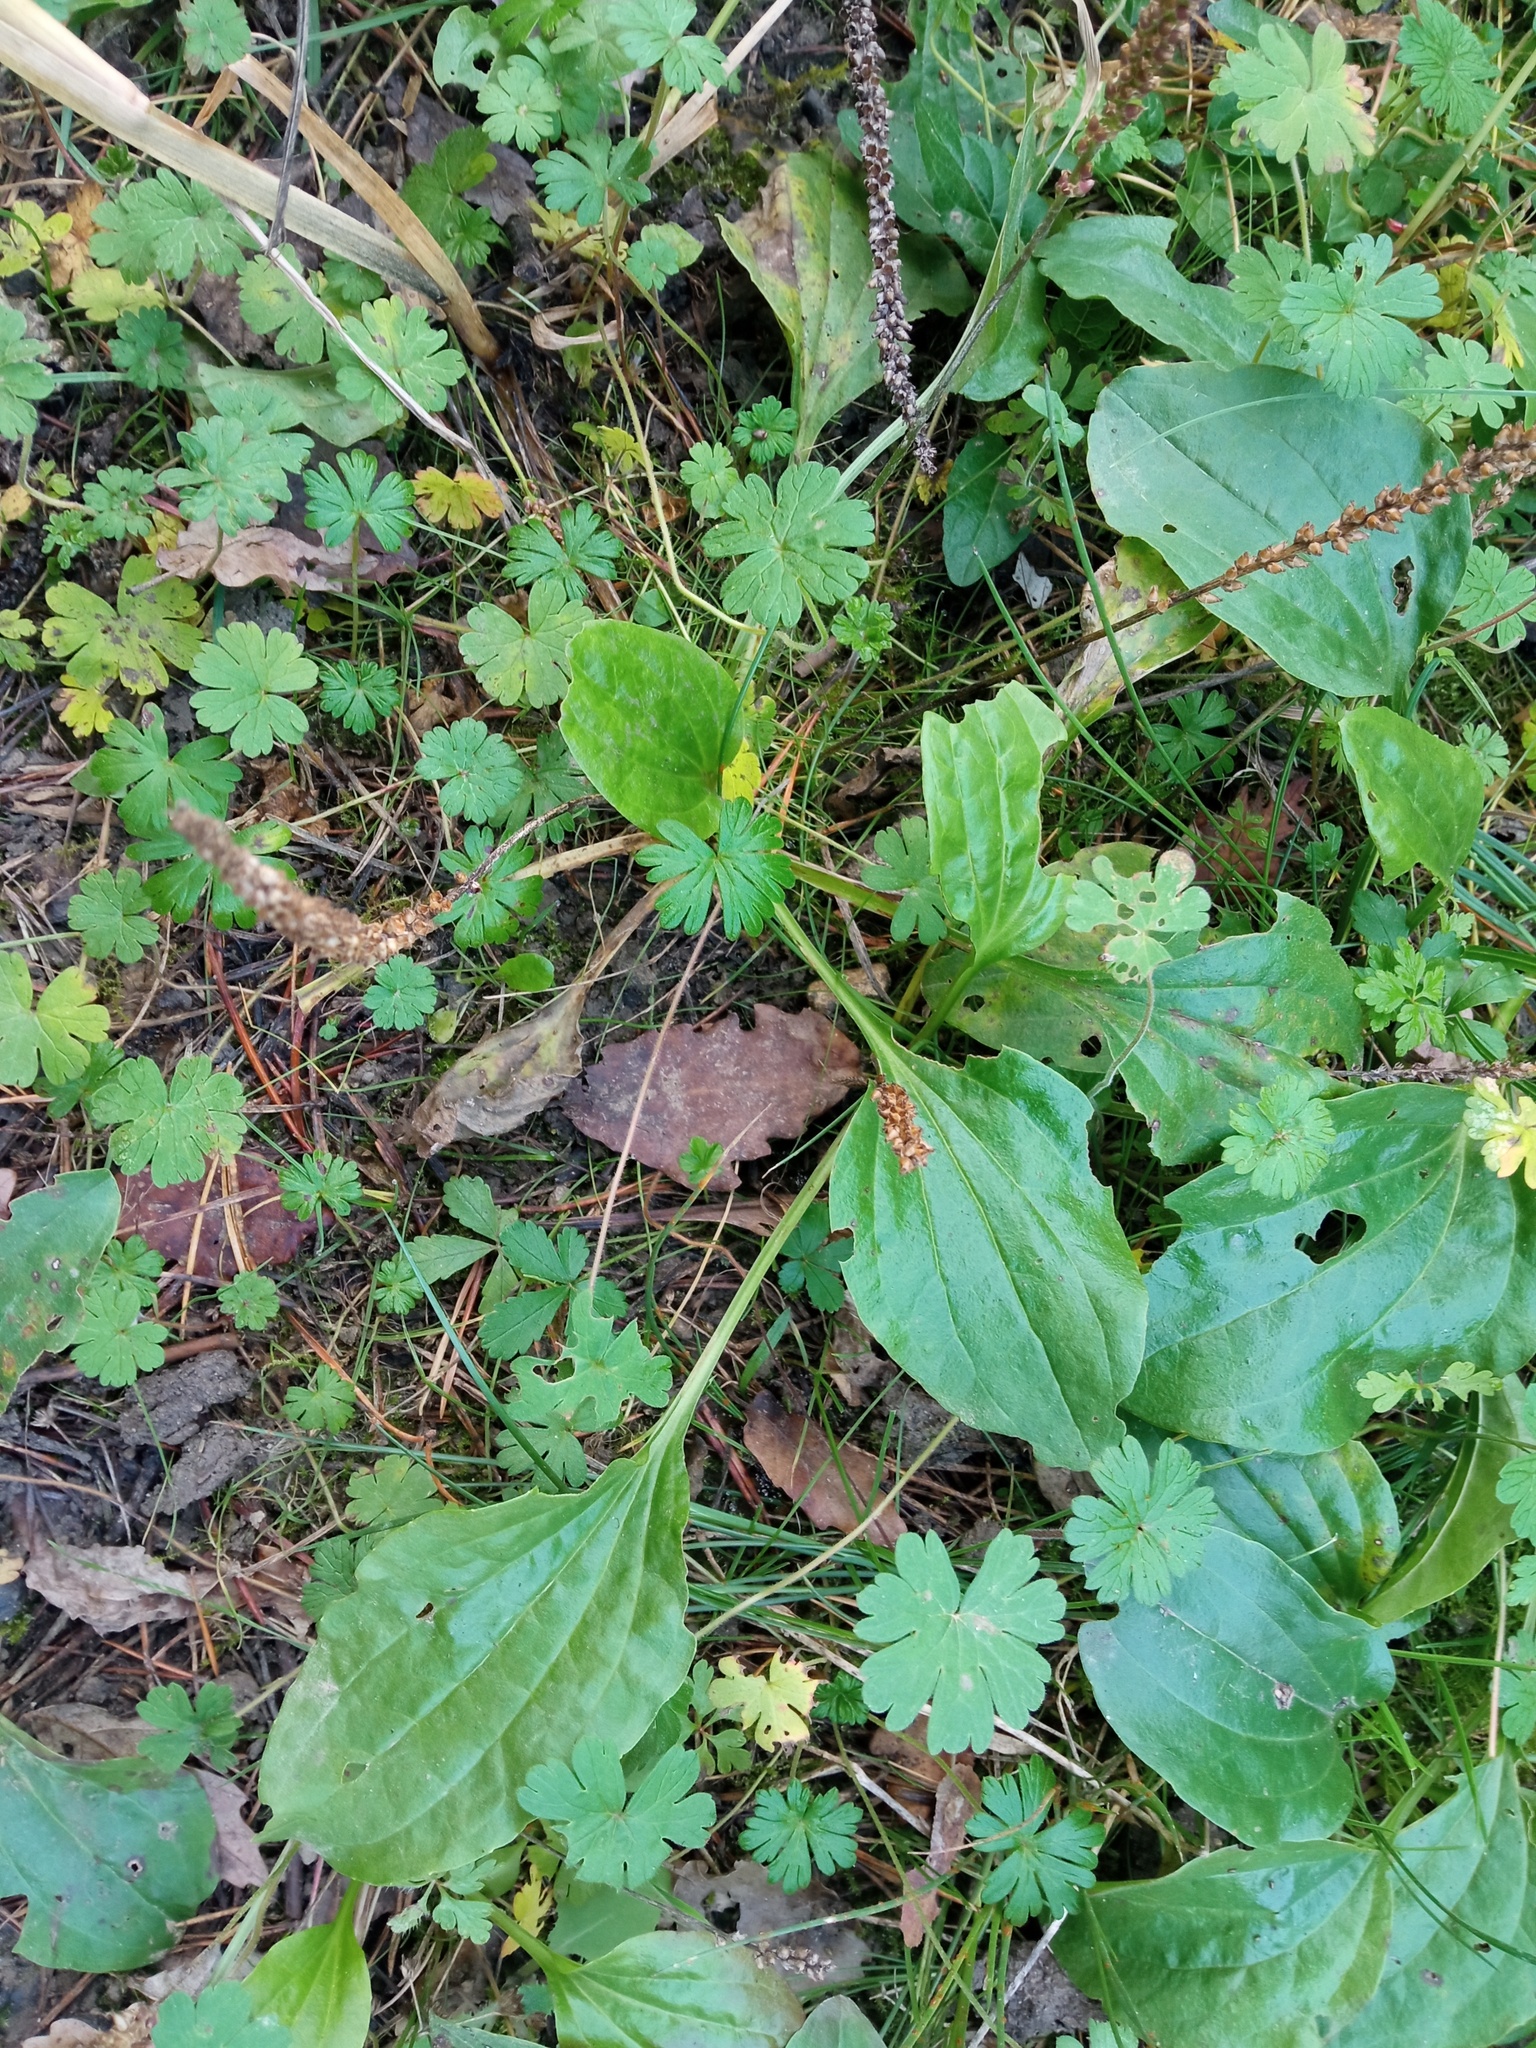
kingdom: Plantae
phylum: Tracheophyta
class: Magnoliopsida
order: Lamiales
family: Plantaginaceae
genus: Plantago
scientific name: Plantago major
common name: Common plantain
